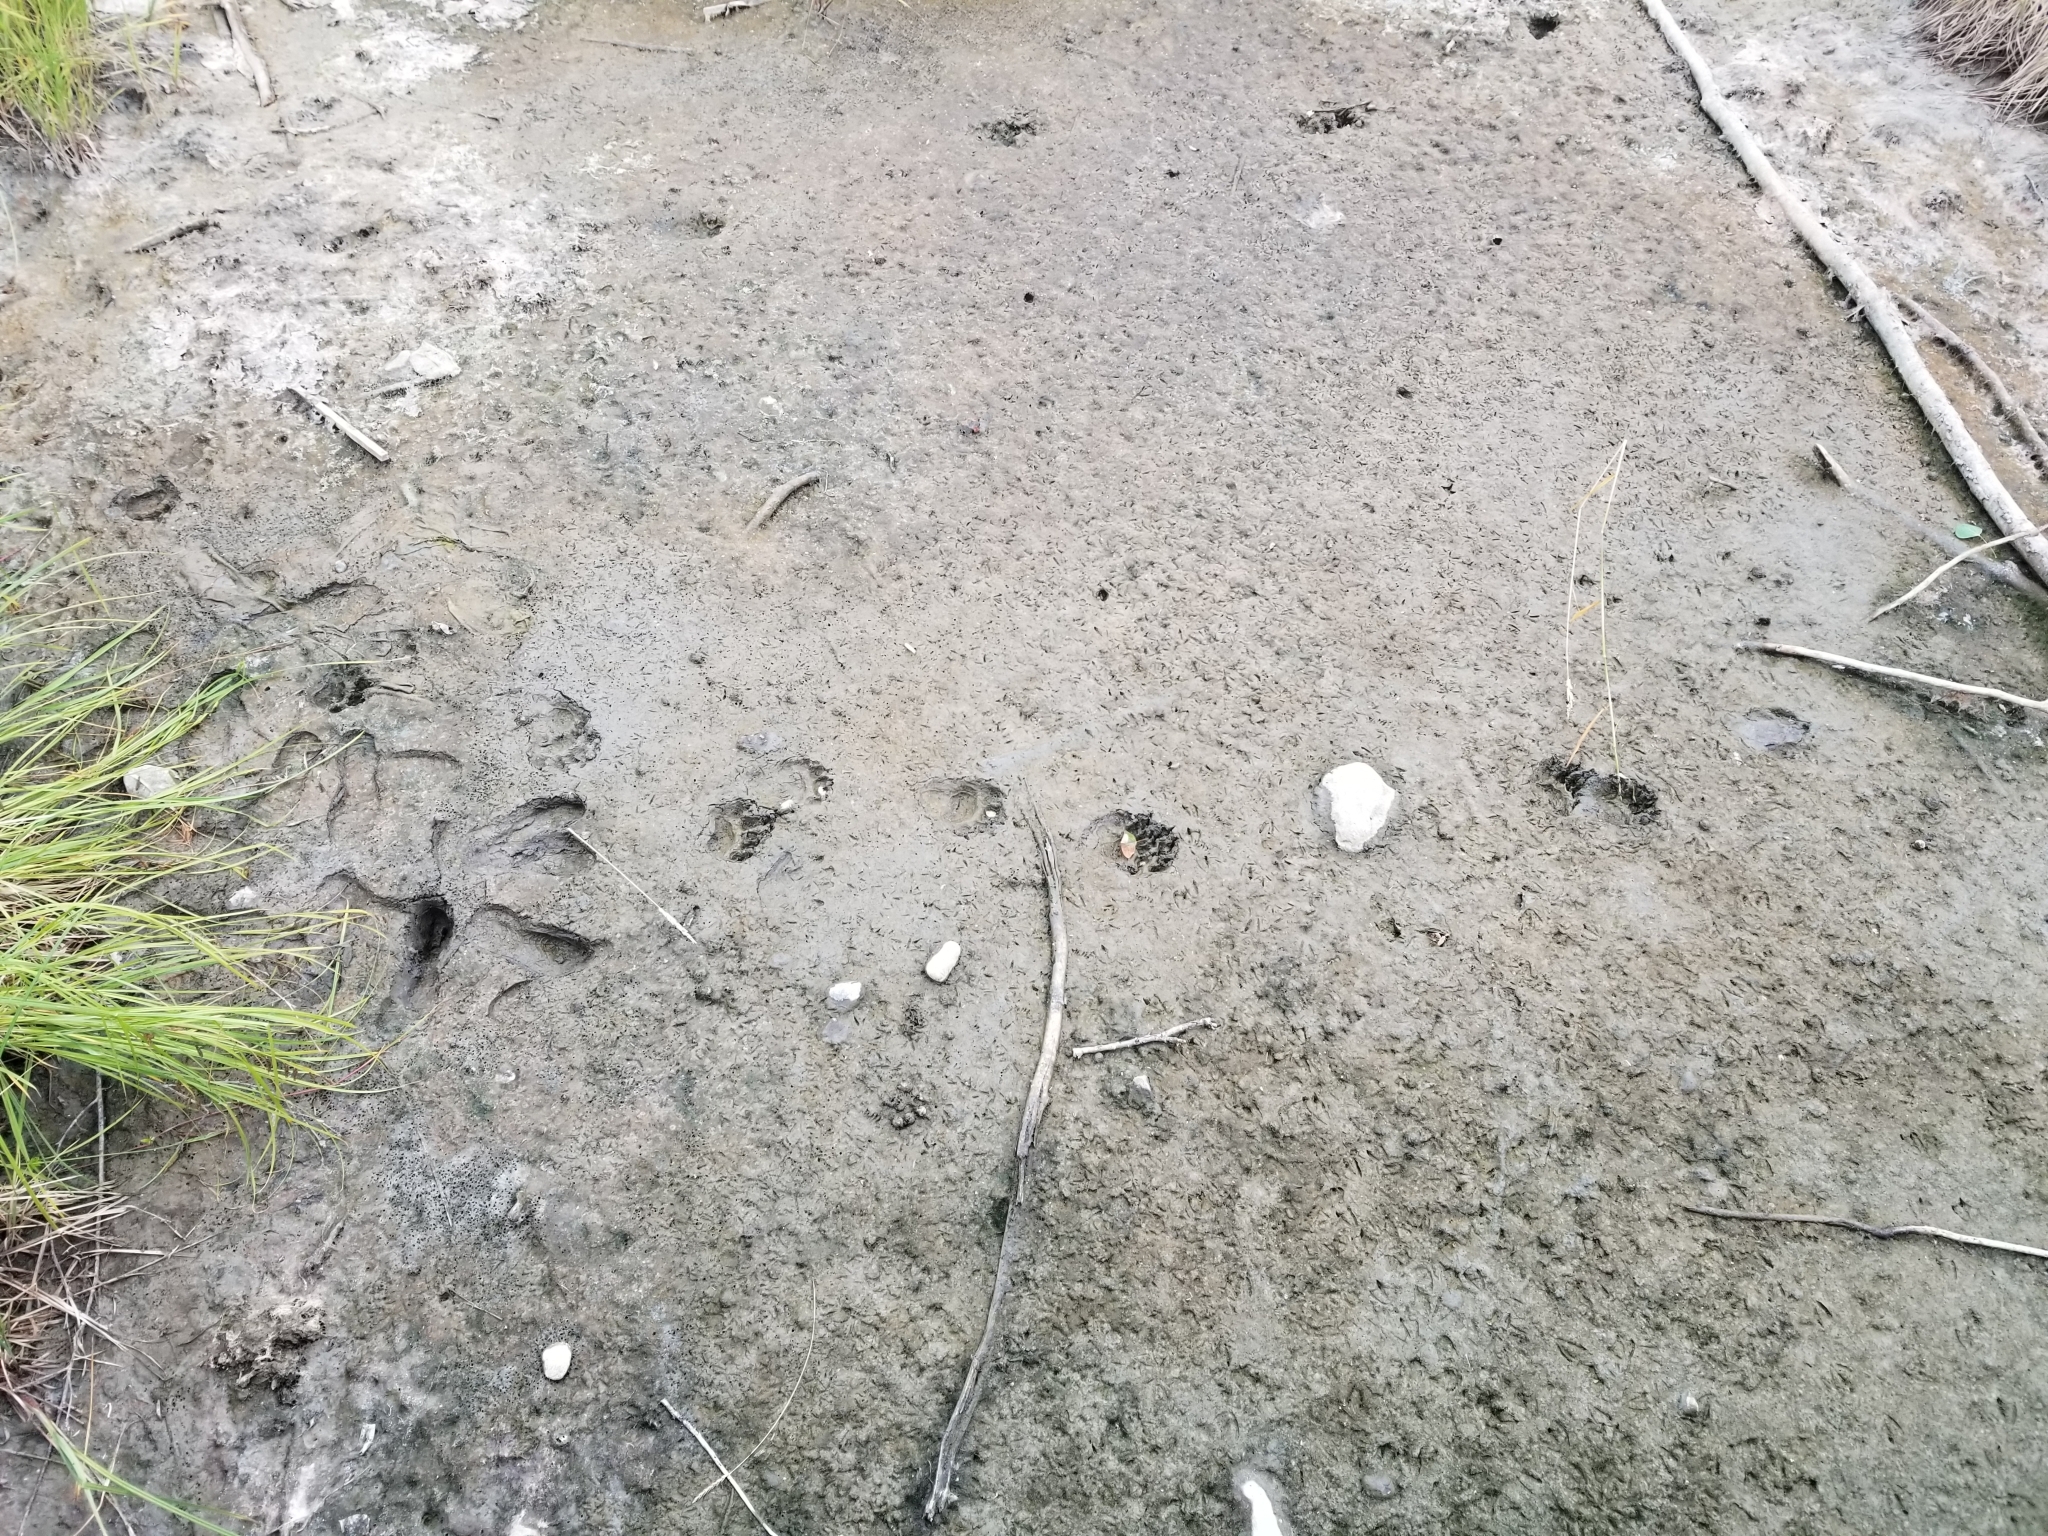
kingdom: Animalia
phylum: Chordata
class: Mammalia
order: Carnivora
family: Ursidae
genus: Ursus
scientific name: Ursus americanus
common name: American black bear
